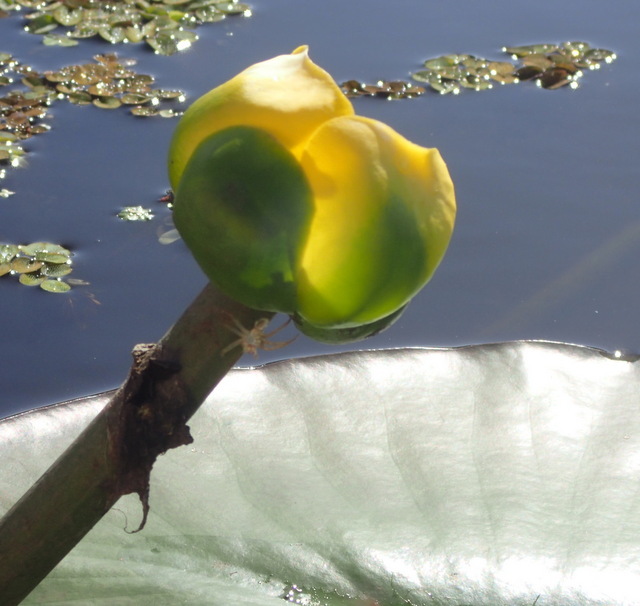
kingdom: Plantae
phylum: Tracheophyta
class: Magnoliopsida
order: Nymphaeales
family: Nymphaeaceae
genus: Nuphar
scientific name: Nuphar advena
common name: Spatter-dock
